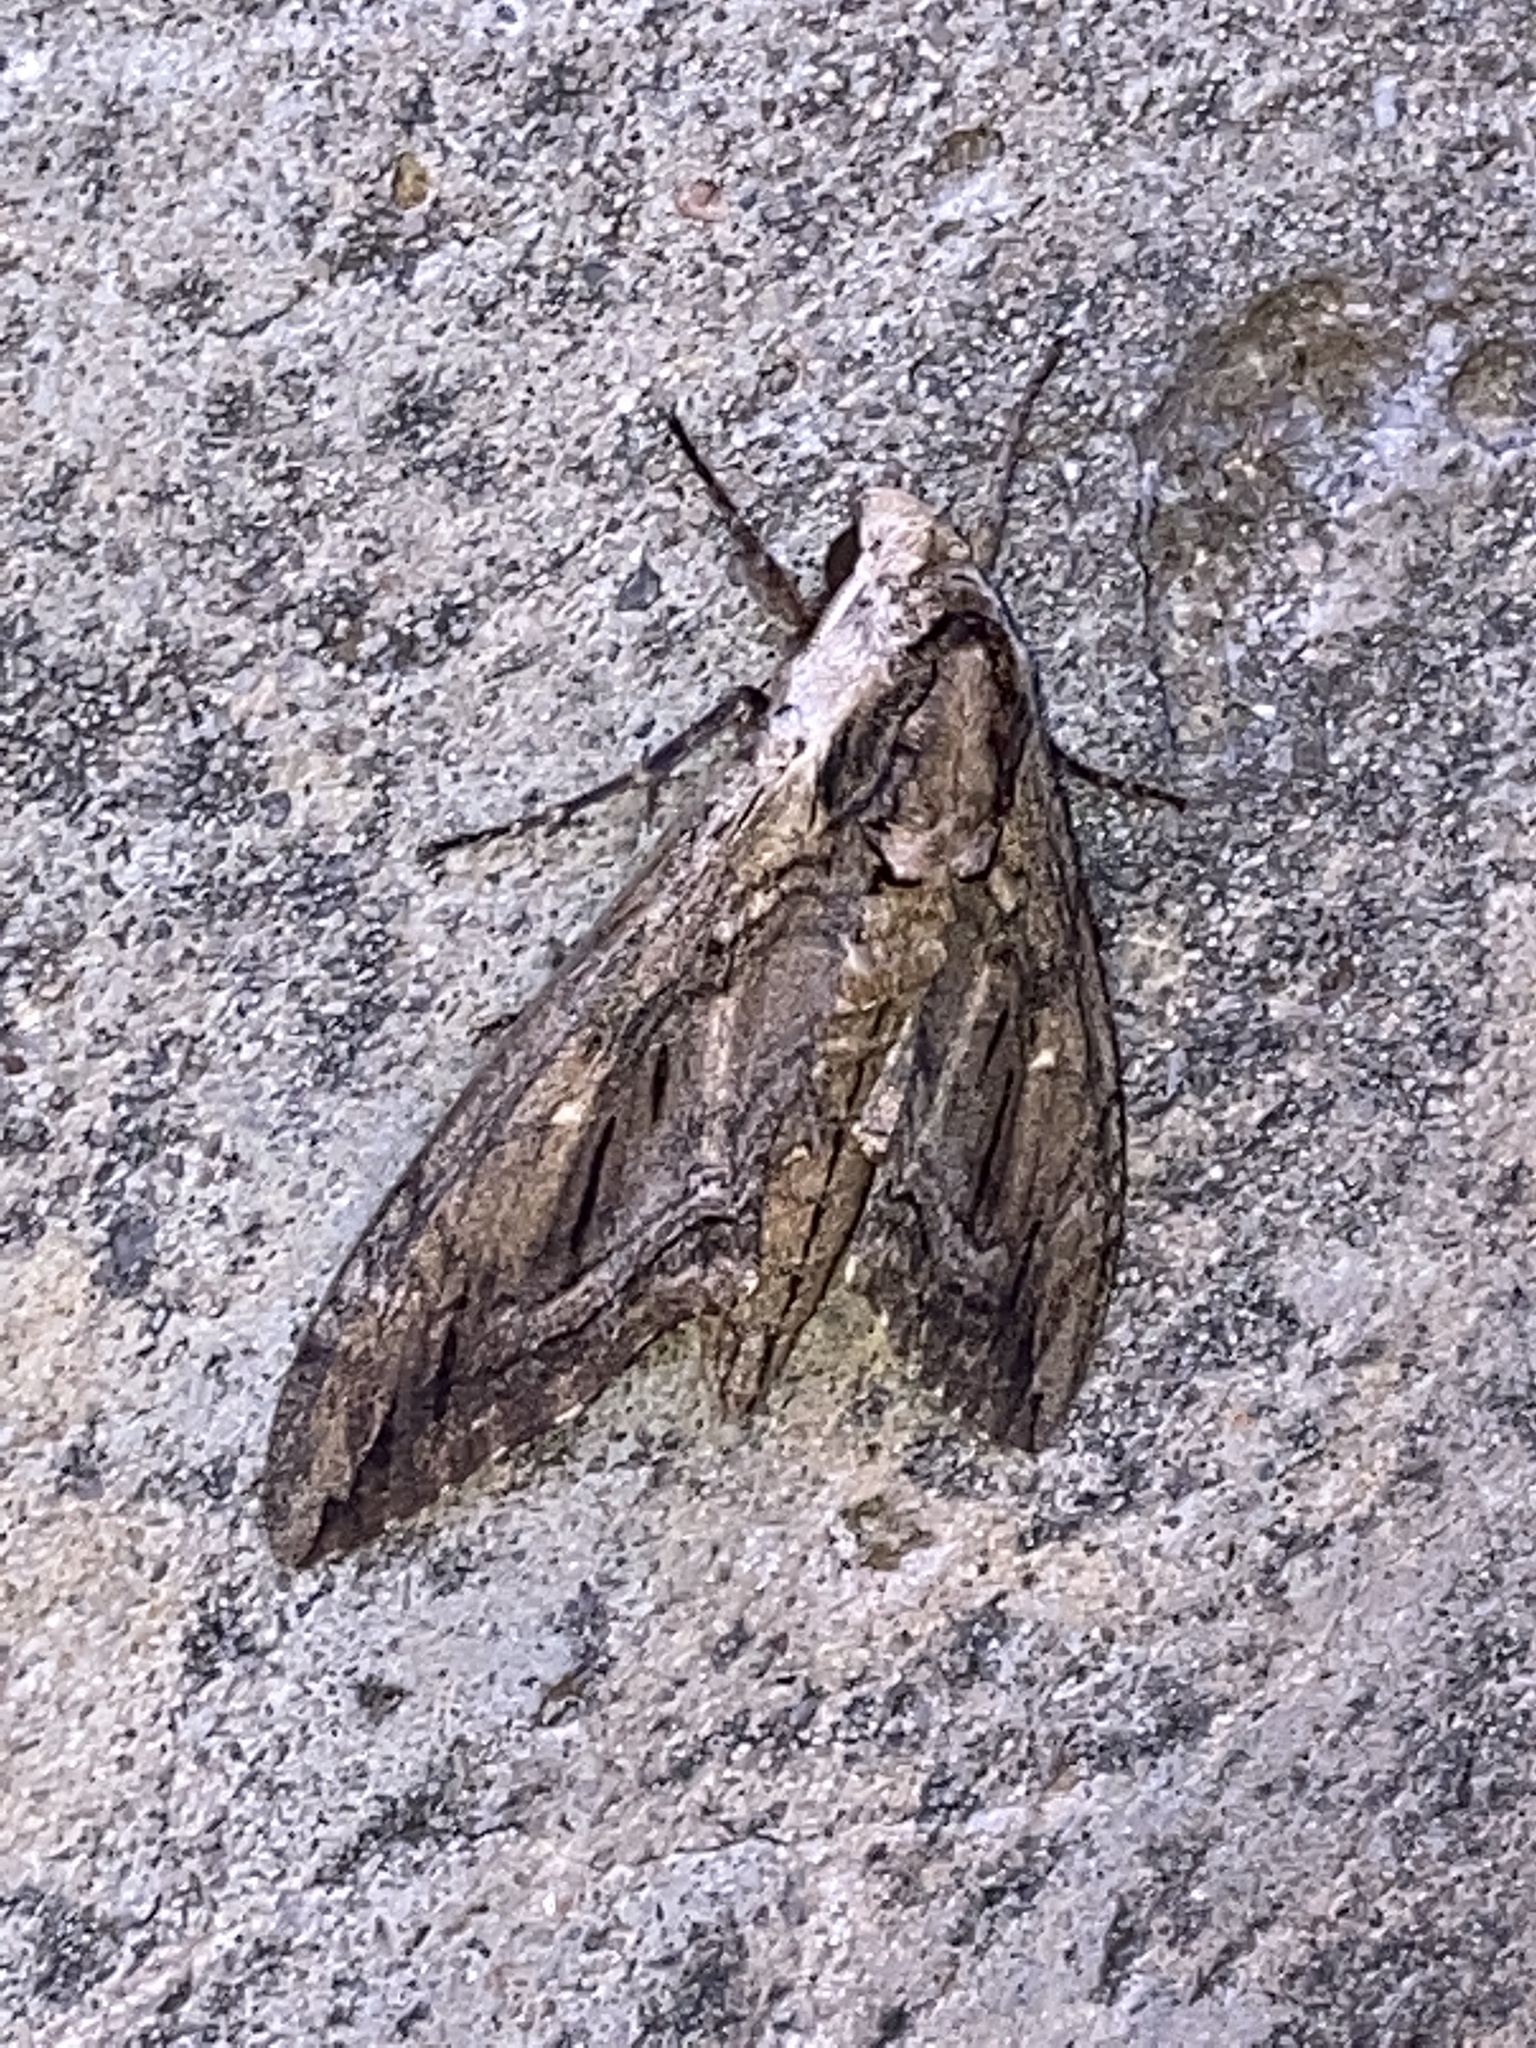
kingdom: Animalia
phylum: Arthropoda
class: Insecta
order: Lepidoptera
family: Sphingidae
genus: Ceratomia
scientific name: Ceratomia amyntor
